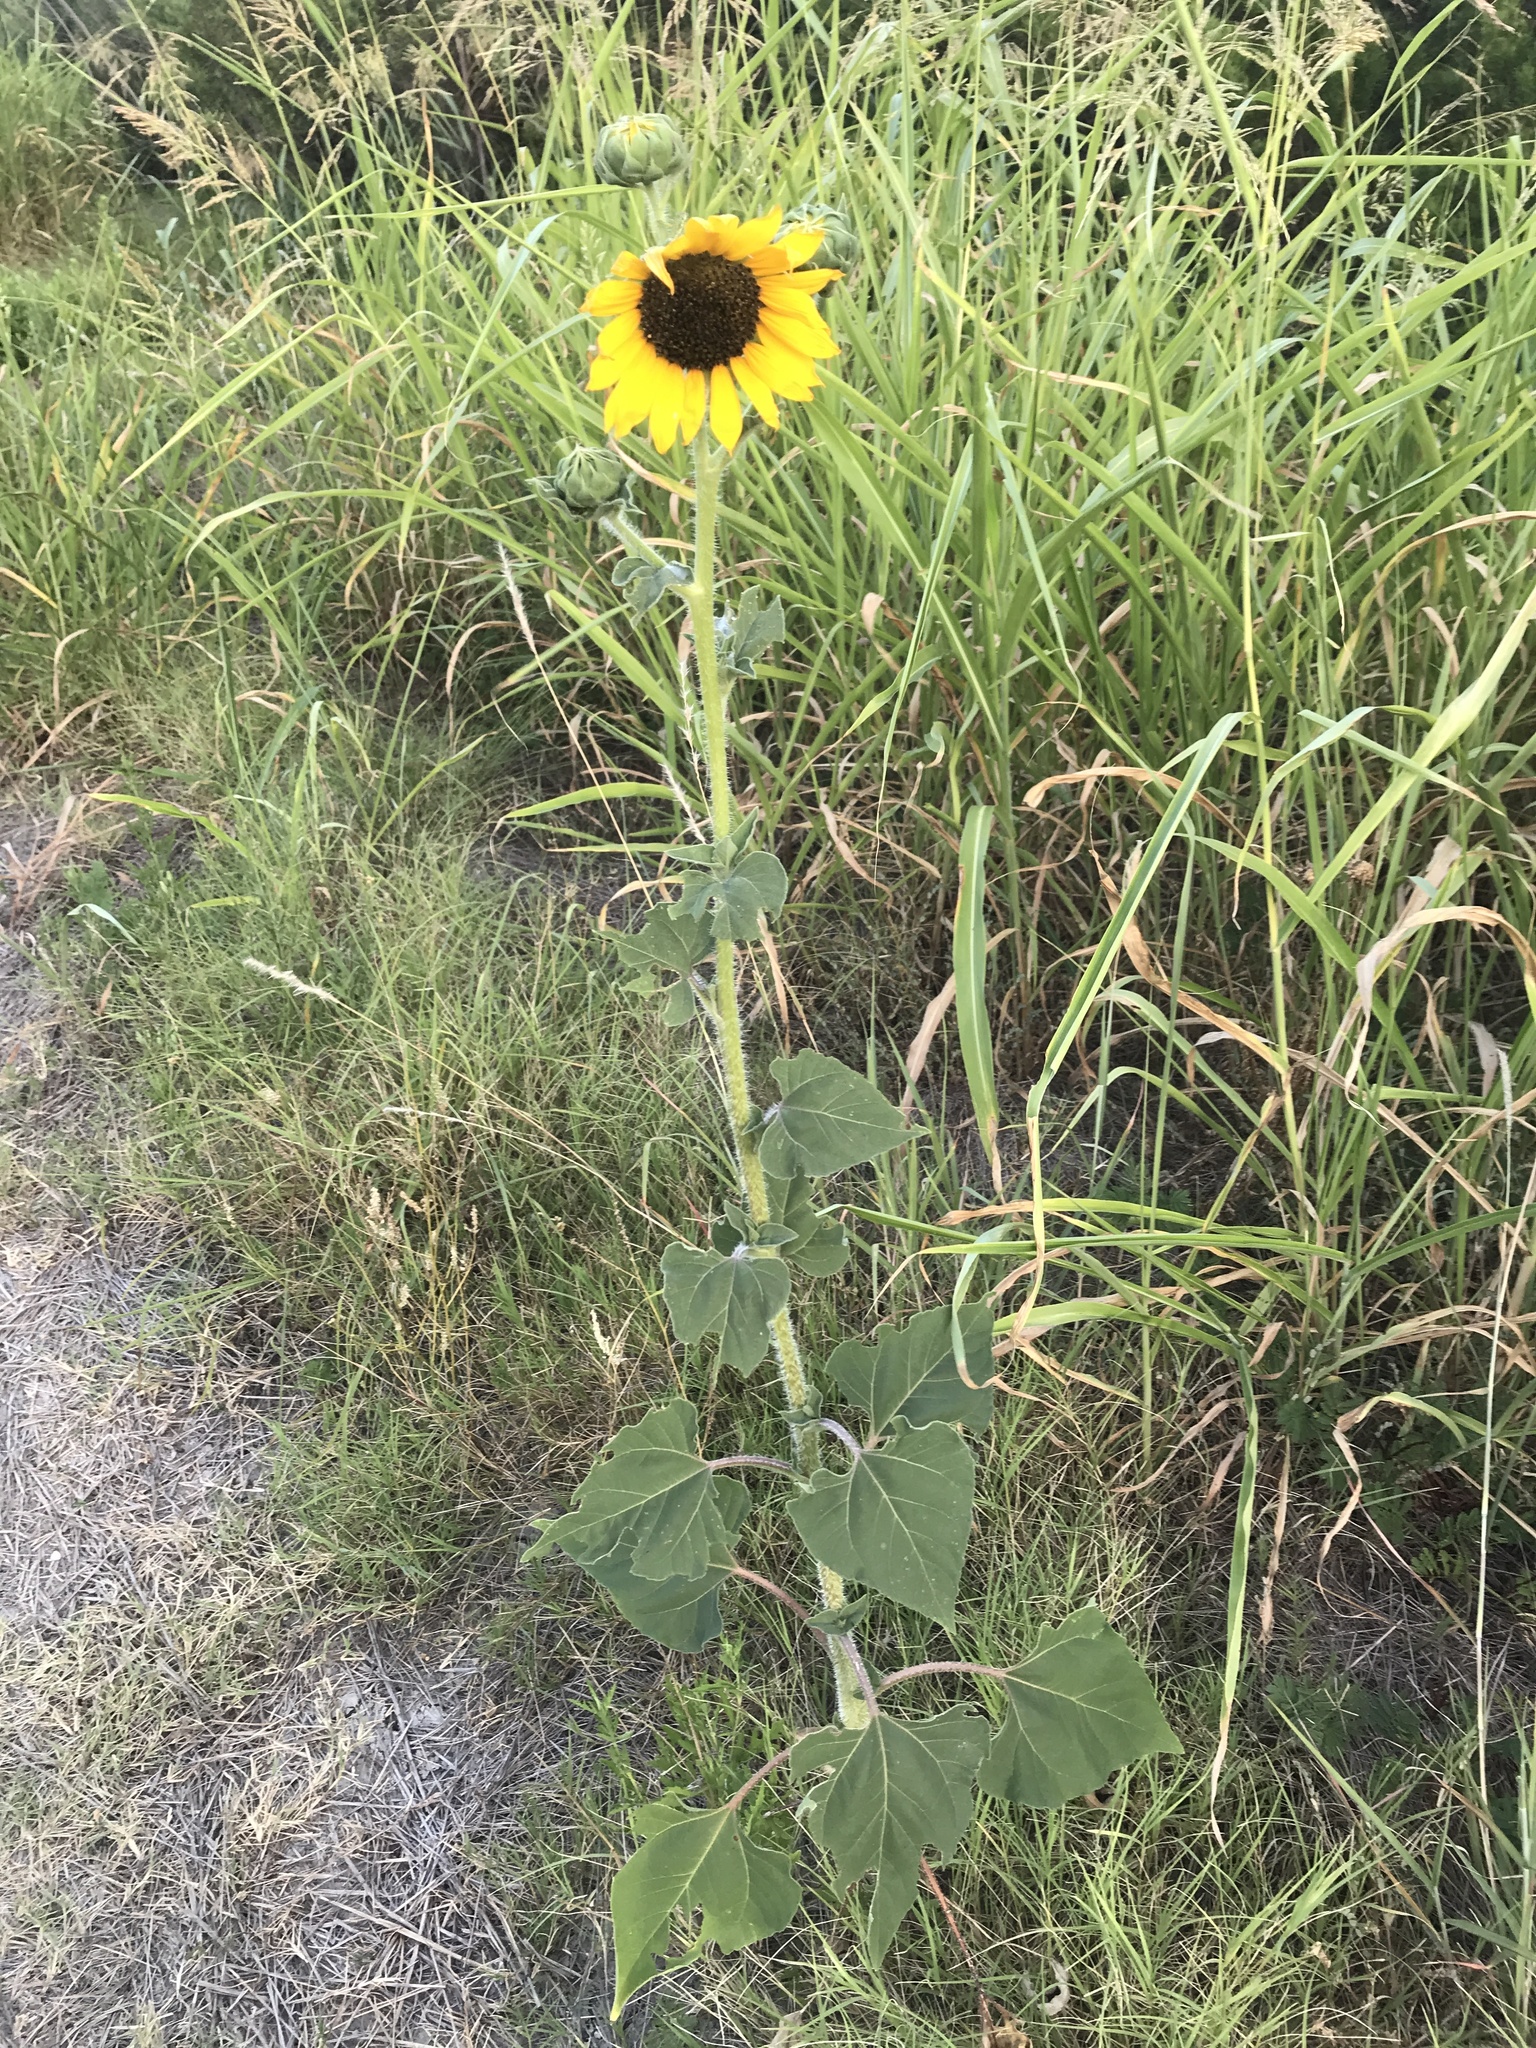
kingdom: Plantae
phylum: Tracheophyta
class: Magnoliopsida
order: Asterales
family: Asteraceae
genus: Helianthus
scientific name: Helianthus annuus
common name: Sunflower
